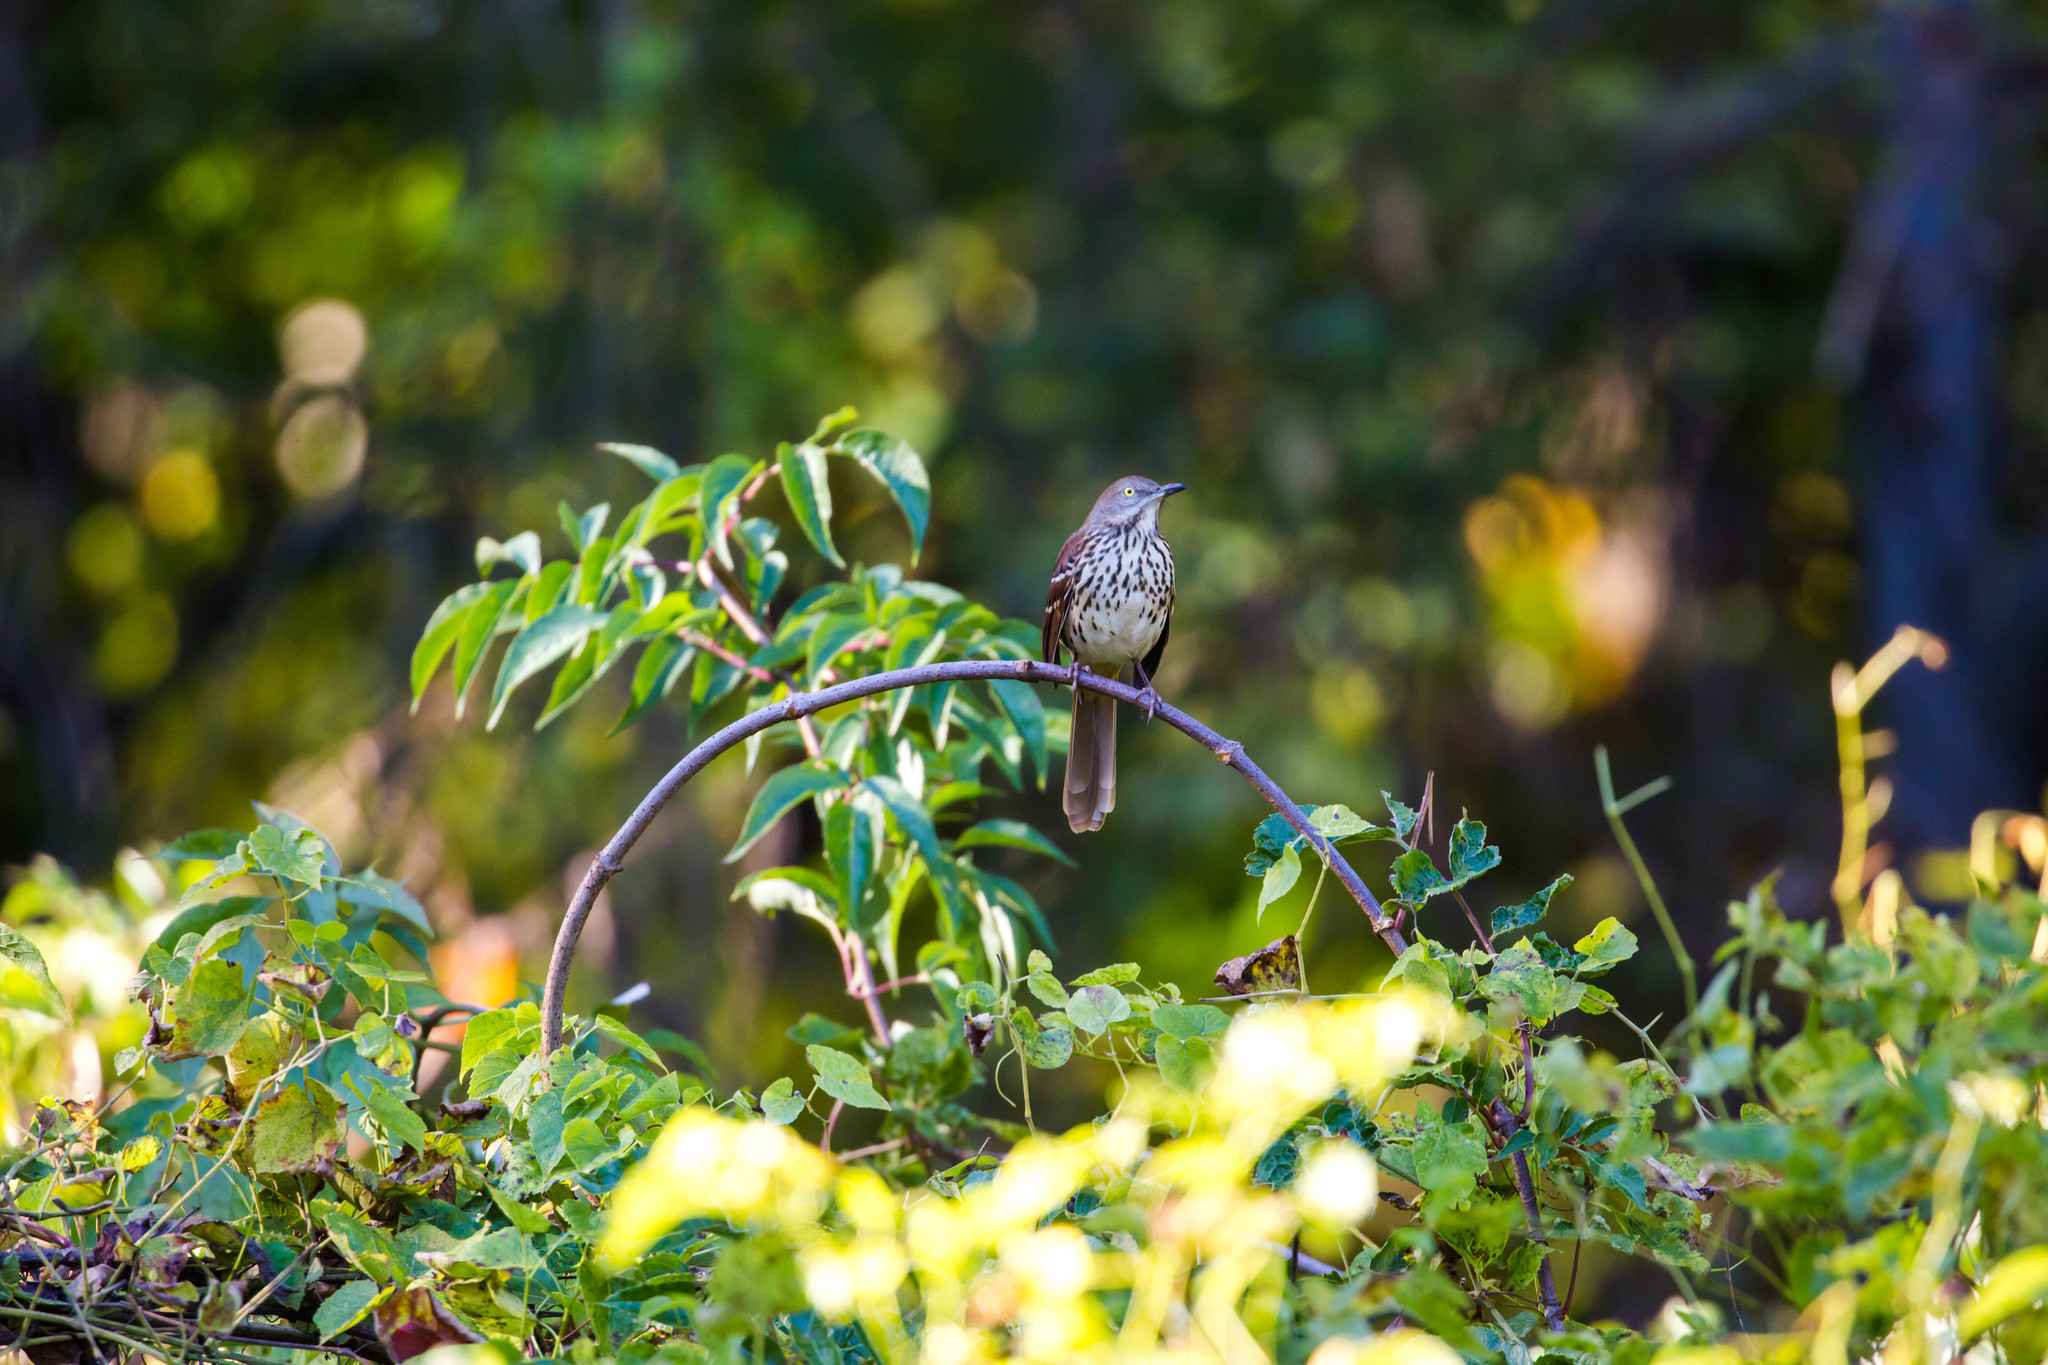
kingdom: Animalia
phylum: Chordata
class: Aves
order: Passeriformes
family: Mimidae
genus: Toxostoma
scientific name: Toxostoma rufum
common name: Brown thrasher
